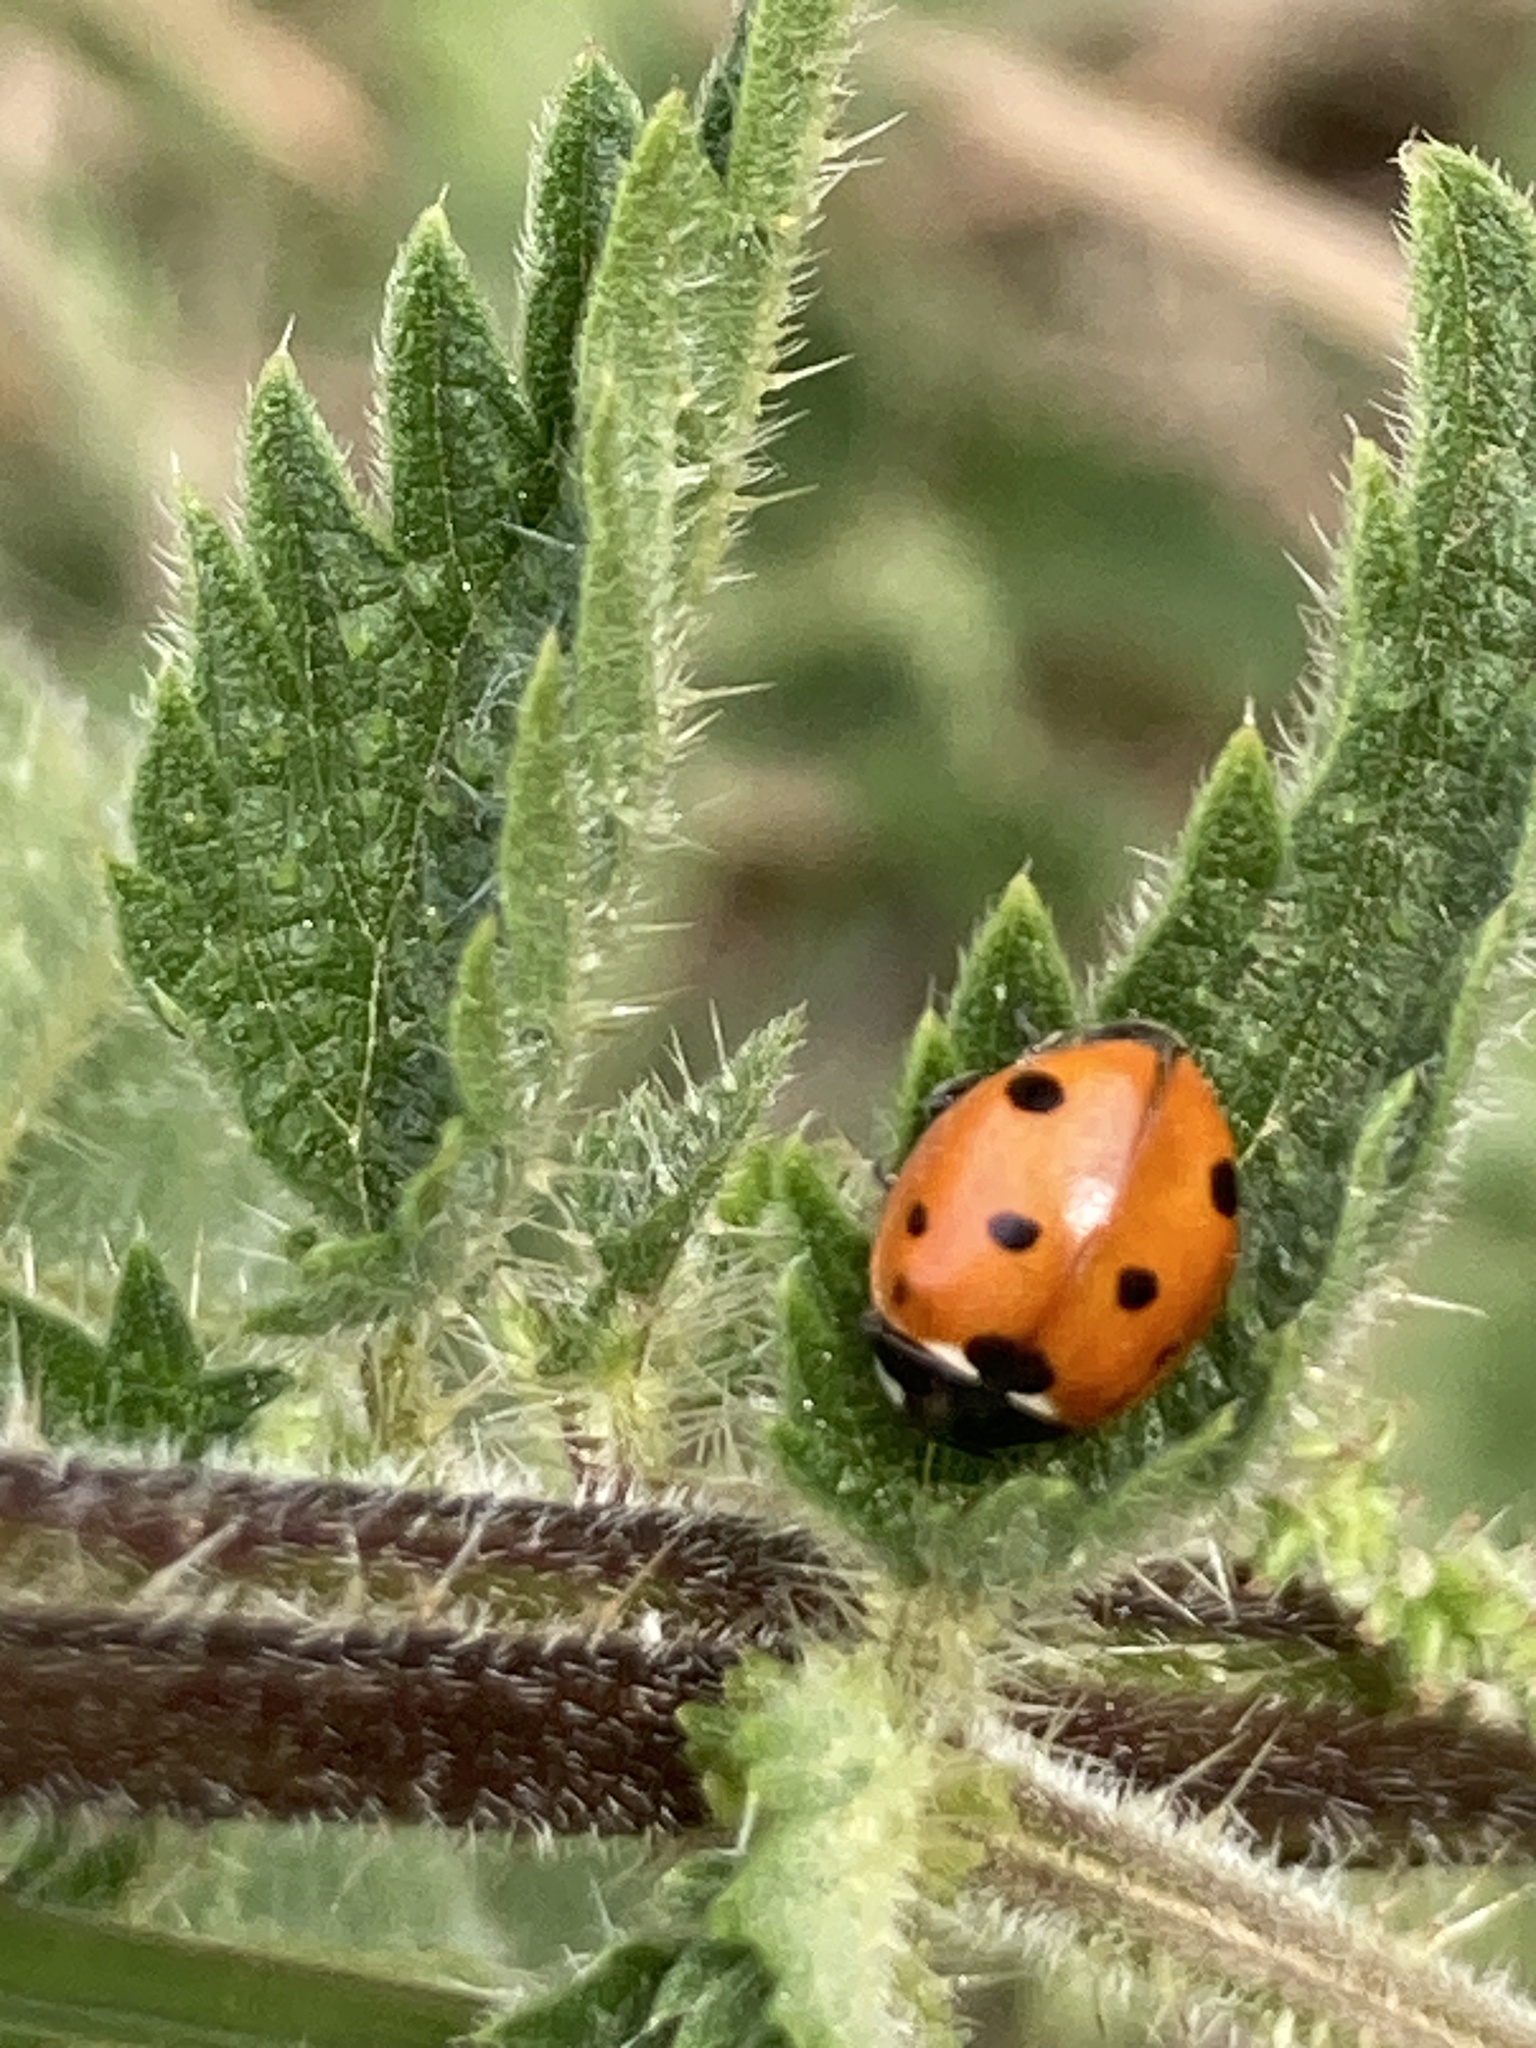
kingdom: Animalia
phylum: Arthropoda
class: Insecta
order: Coleoptera
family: Coccinellidae
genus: Coccinella
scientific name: Coccinella septempunctata
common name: Sevenspotted lady beetle
